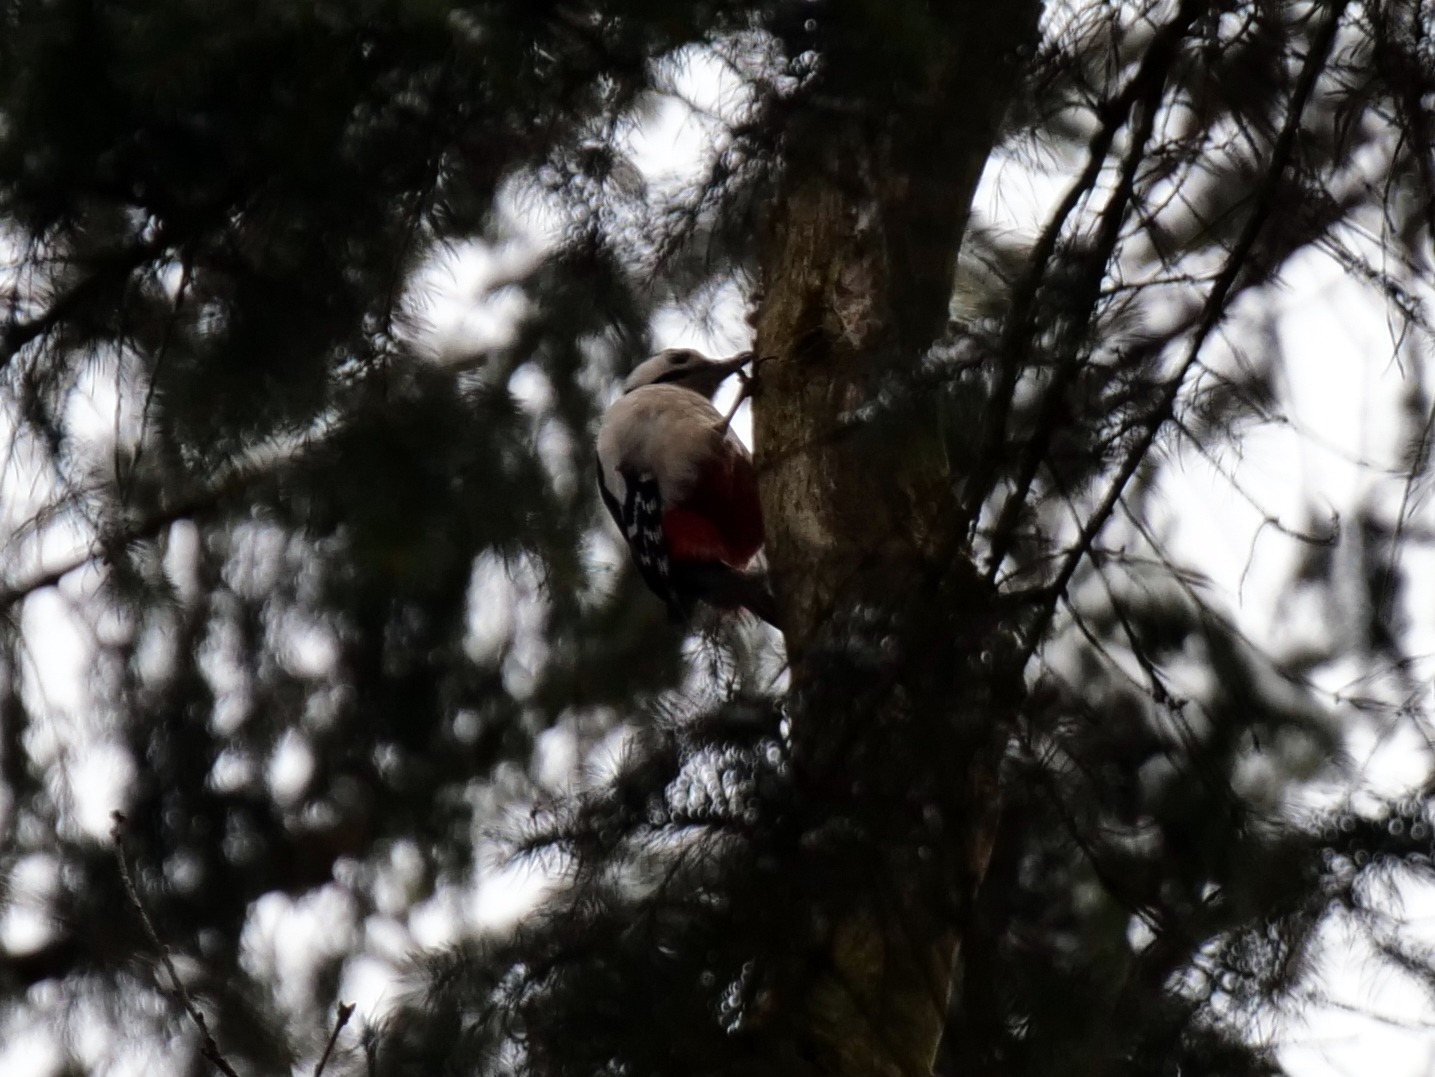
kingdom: Animalia
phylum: Chordata
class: Aves
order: Piciformes
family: Picidae
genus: Dendrocopos
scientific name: Dendrocopos major
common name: Great spotted woodpecker
